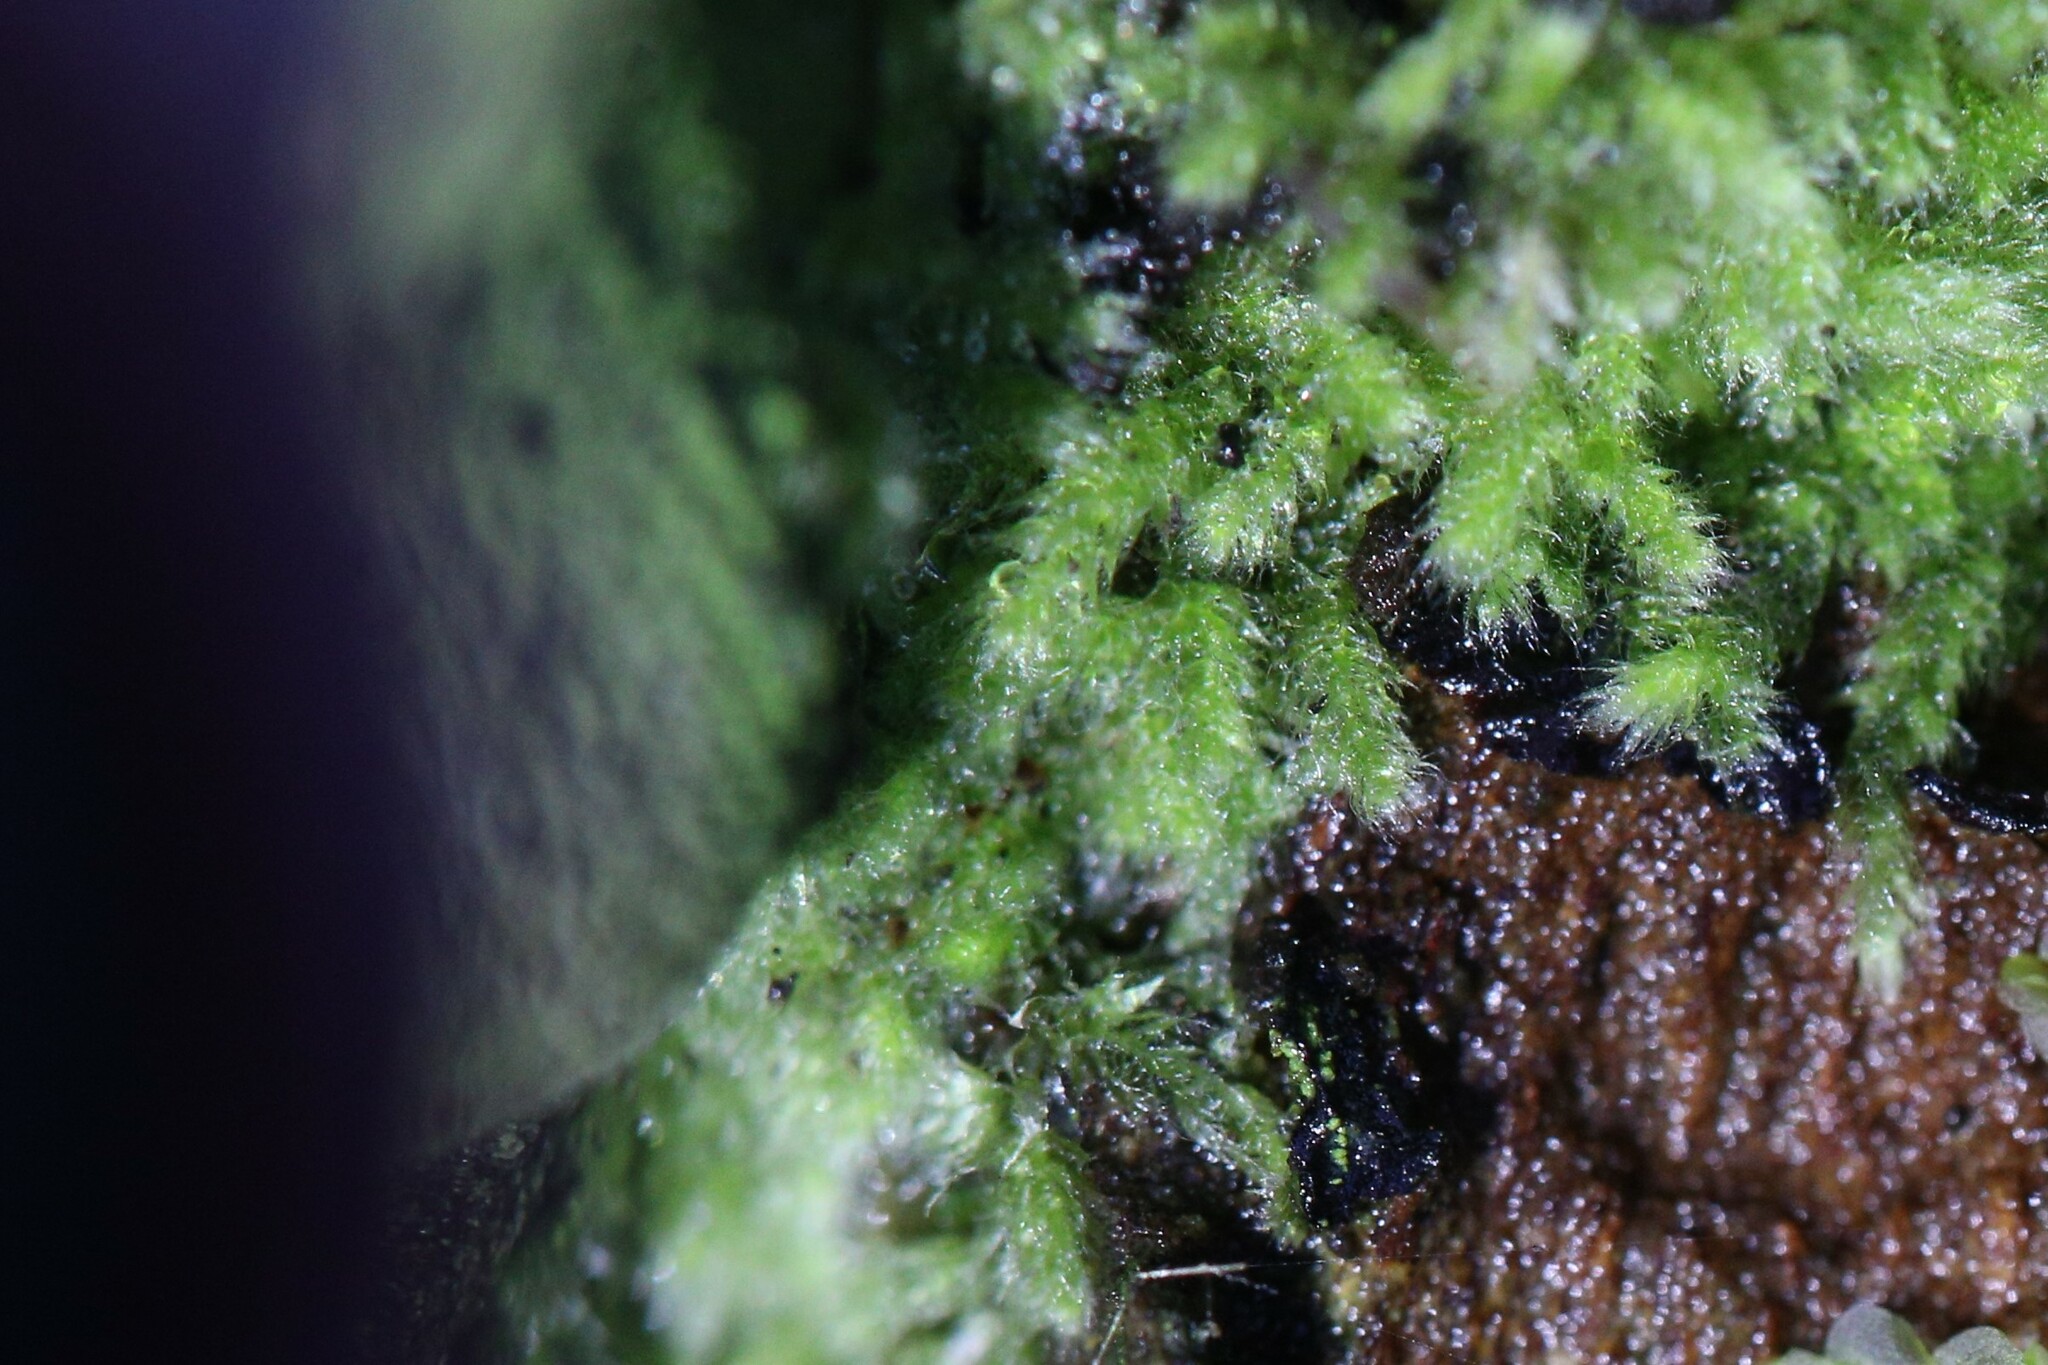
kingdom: Plantae
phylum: Bryophyta
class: Bryopsida
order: Hypnales
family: Fabroniaceae
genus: Fabronia
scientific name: Fabronia hampeana
